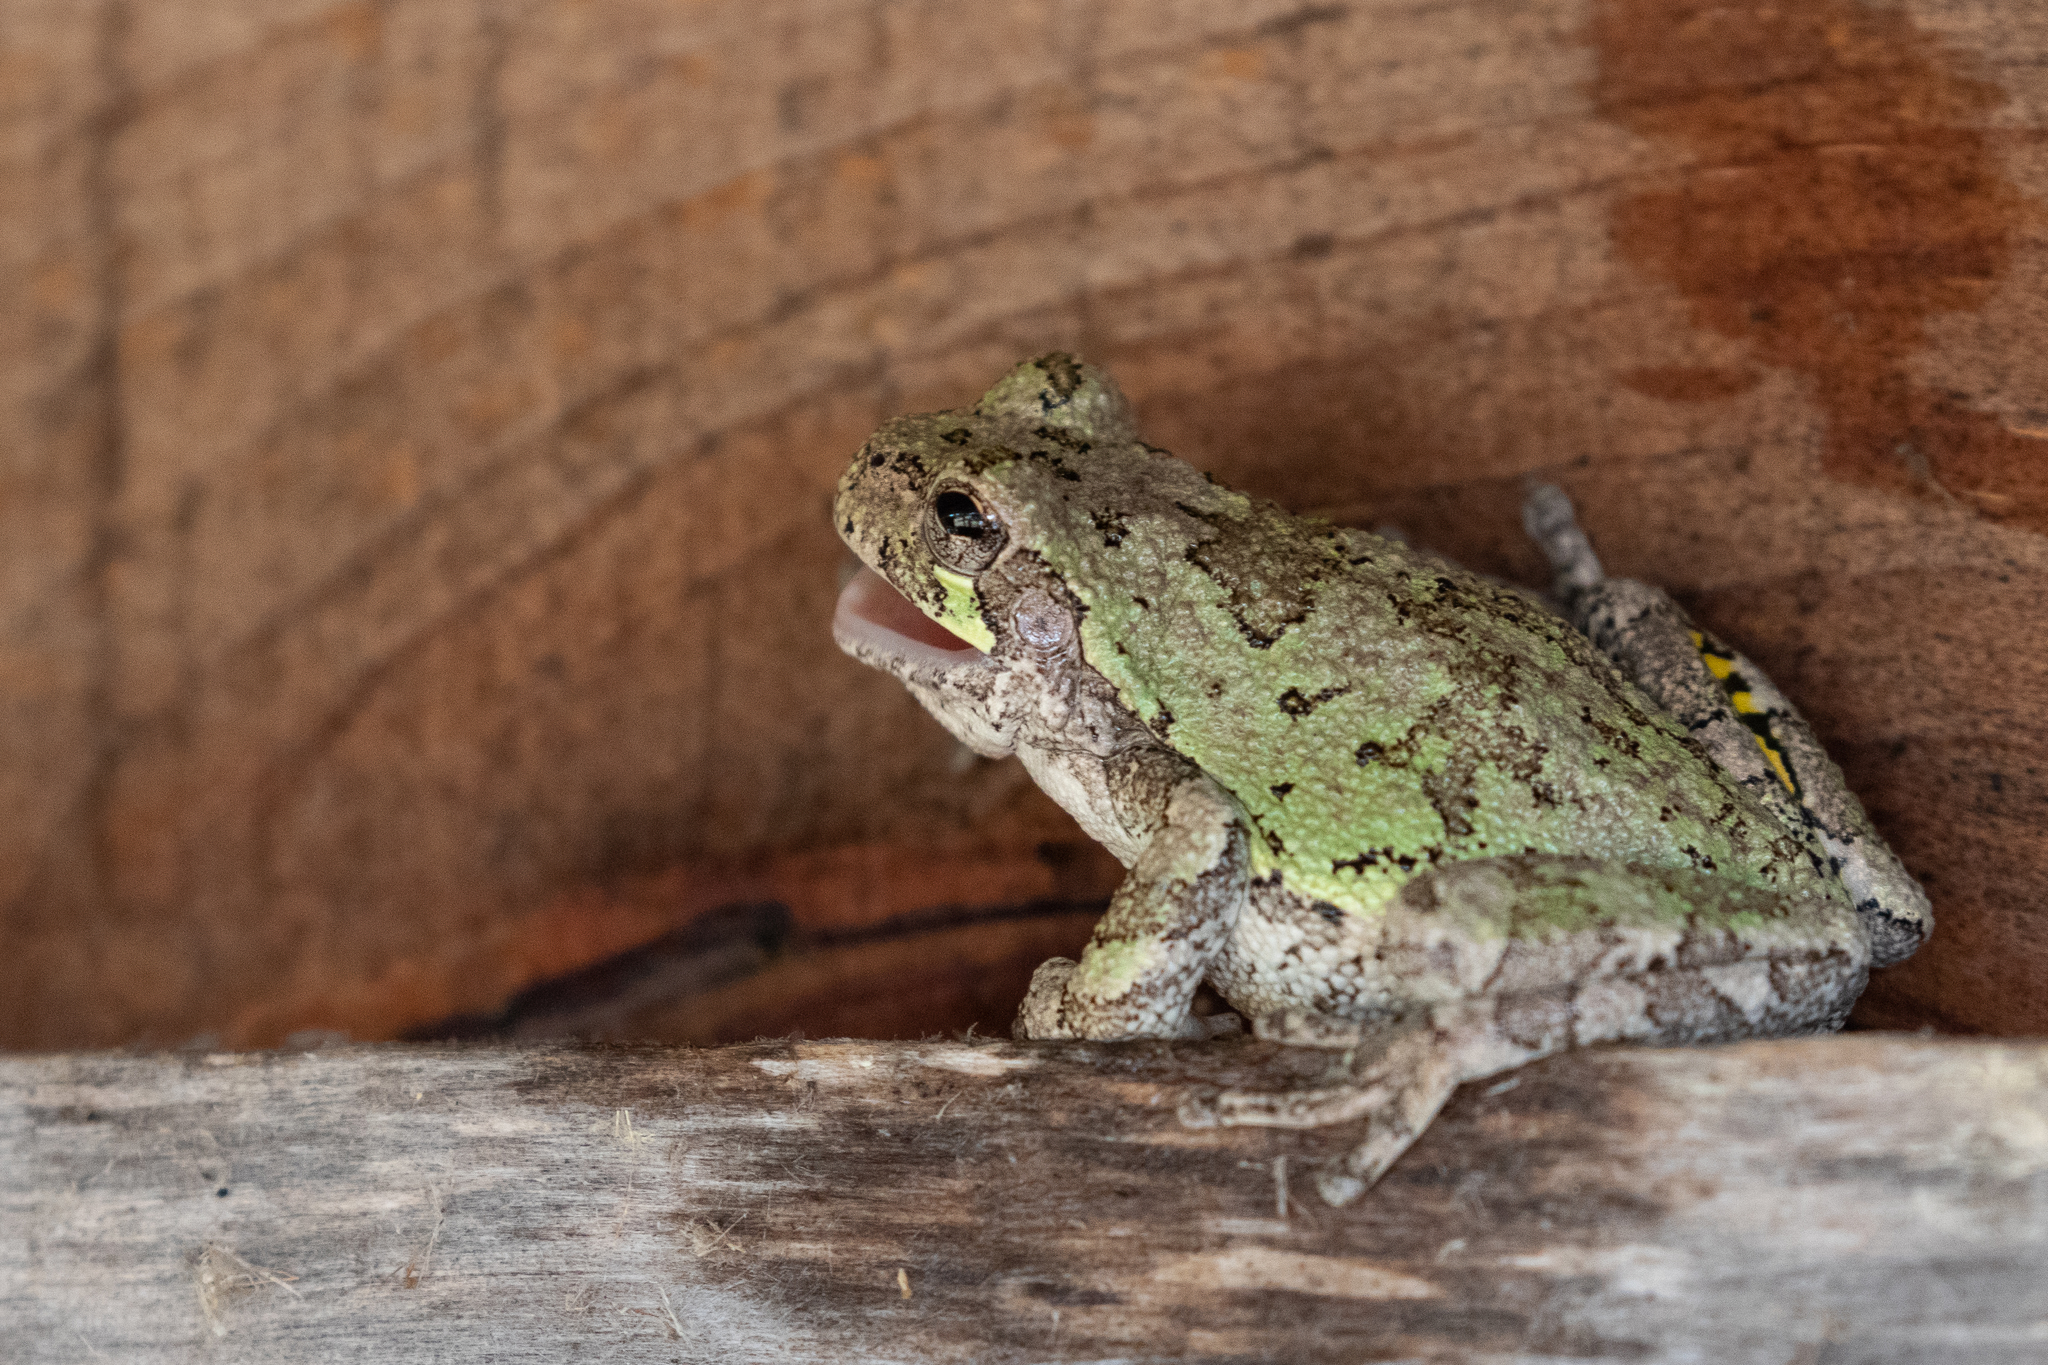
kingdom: Animalia
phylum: Chordata
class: Amphibia
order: Anura
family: Hylidae
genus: Dryophytes
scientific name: Dryophytes versicolor
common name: Gray treefrog
